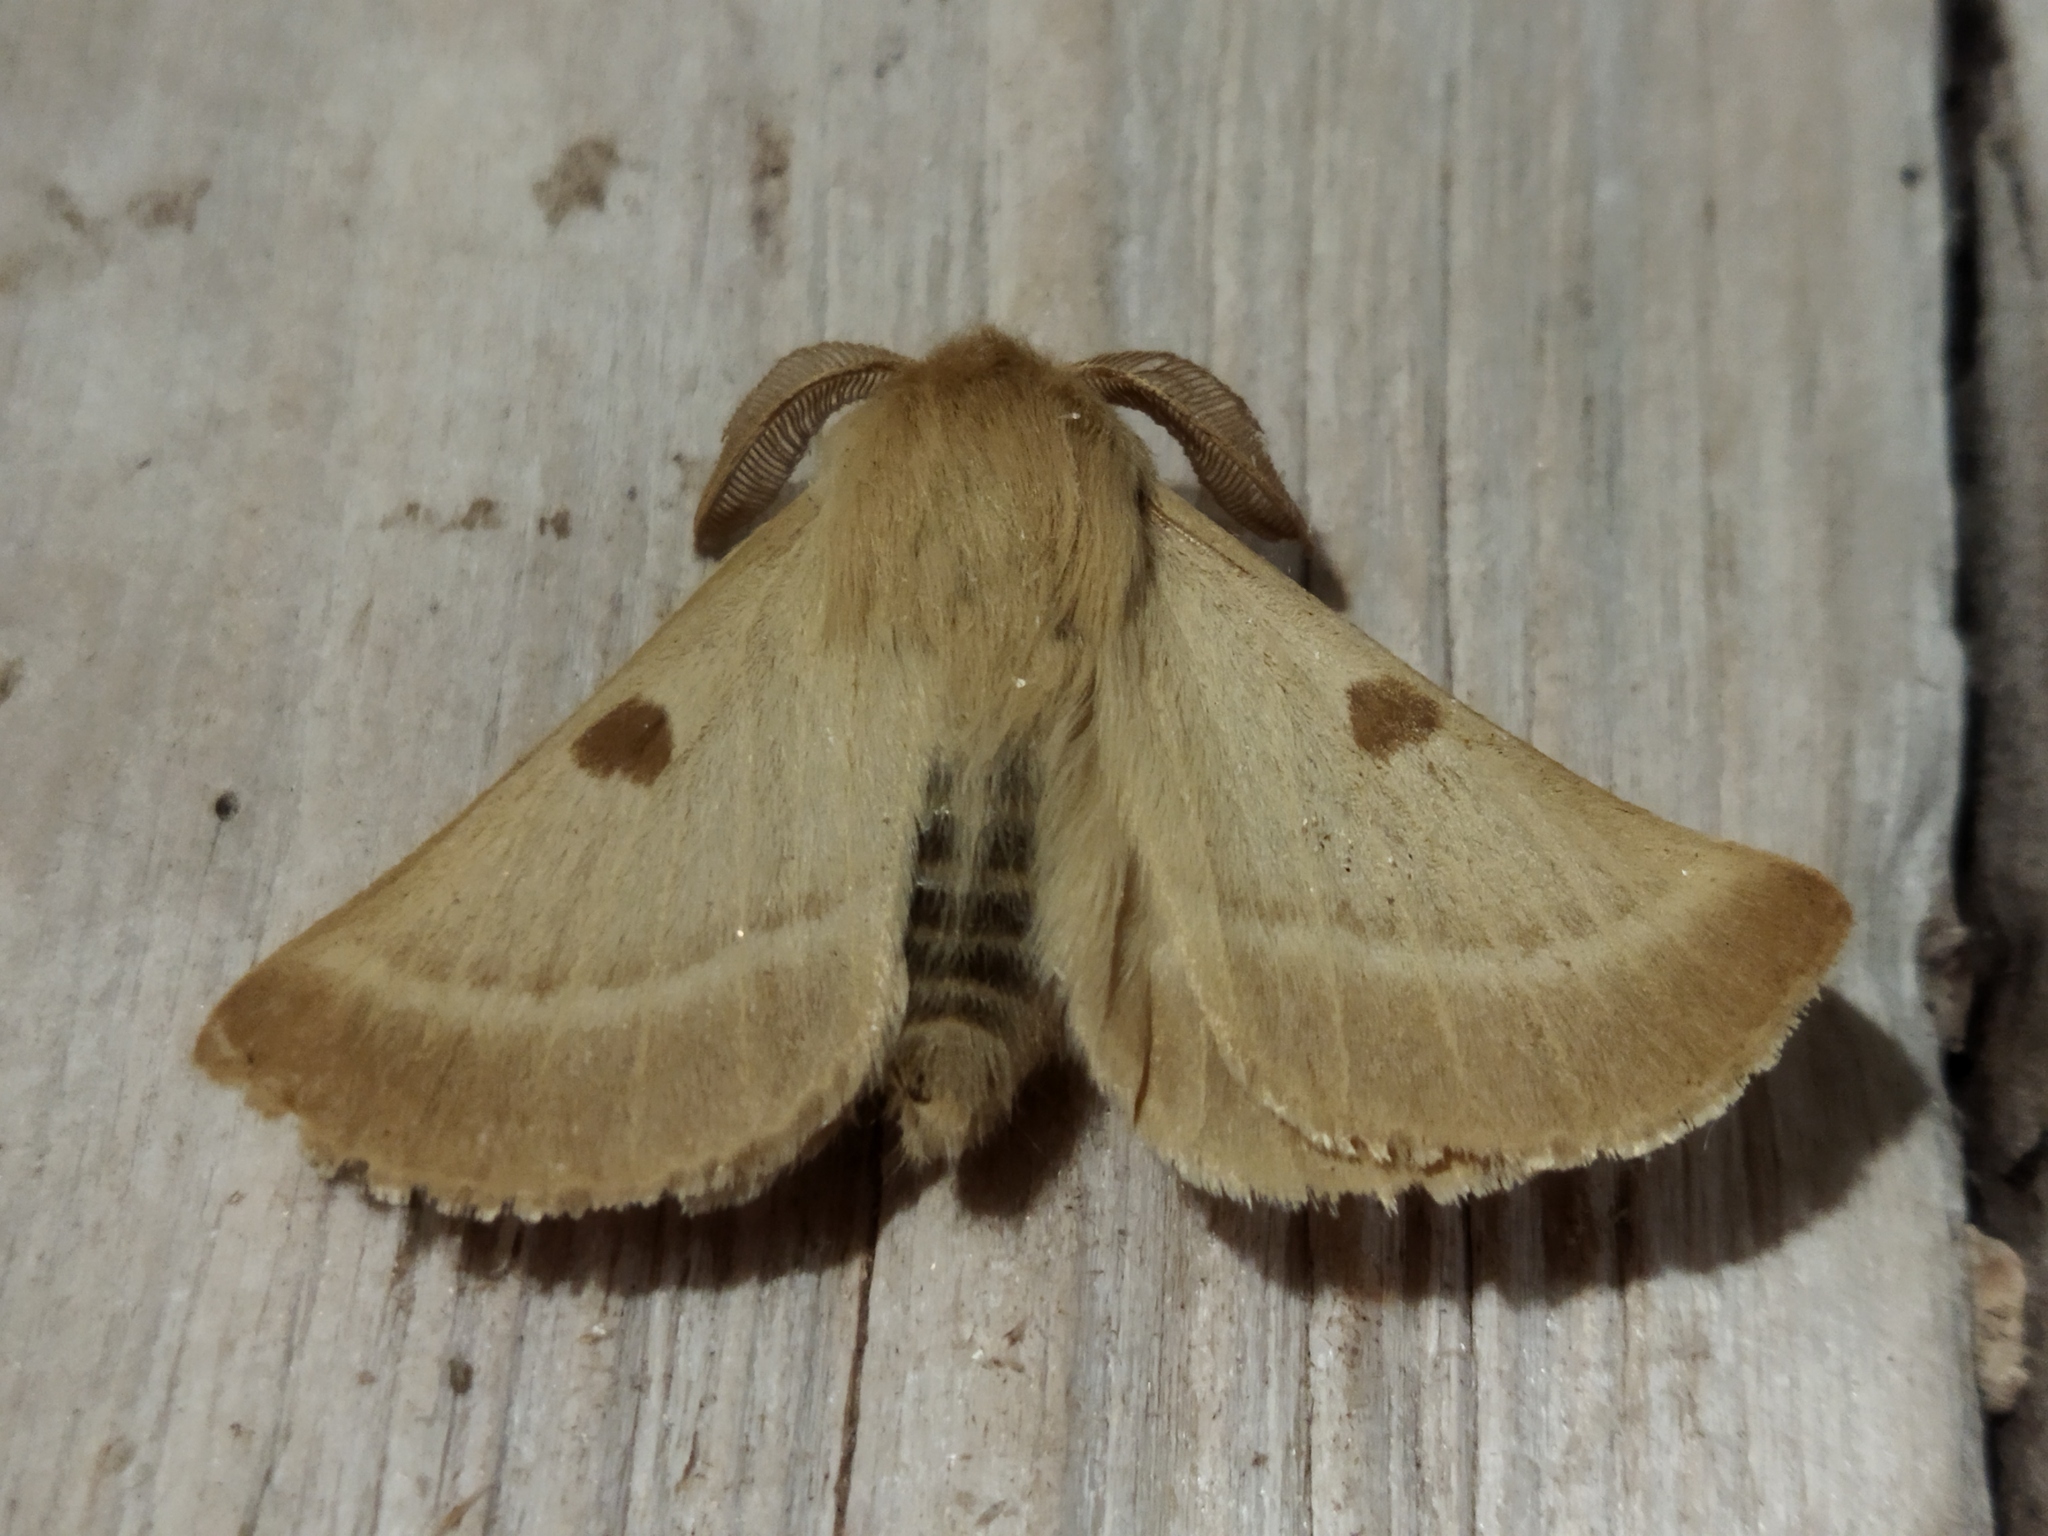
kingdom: Animalia
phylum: Arthropoda
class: Insecta
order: Lepidoptera
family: Brahmaeidae
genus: Lemonia
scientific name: Lemonia balcanica
